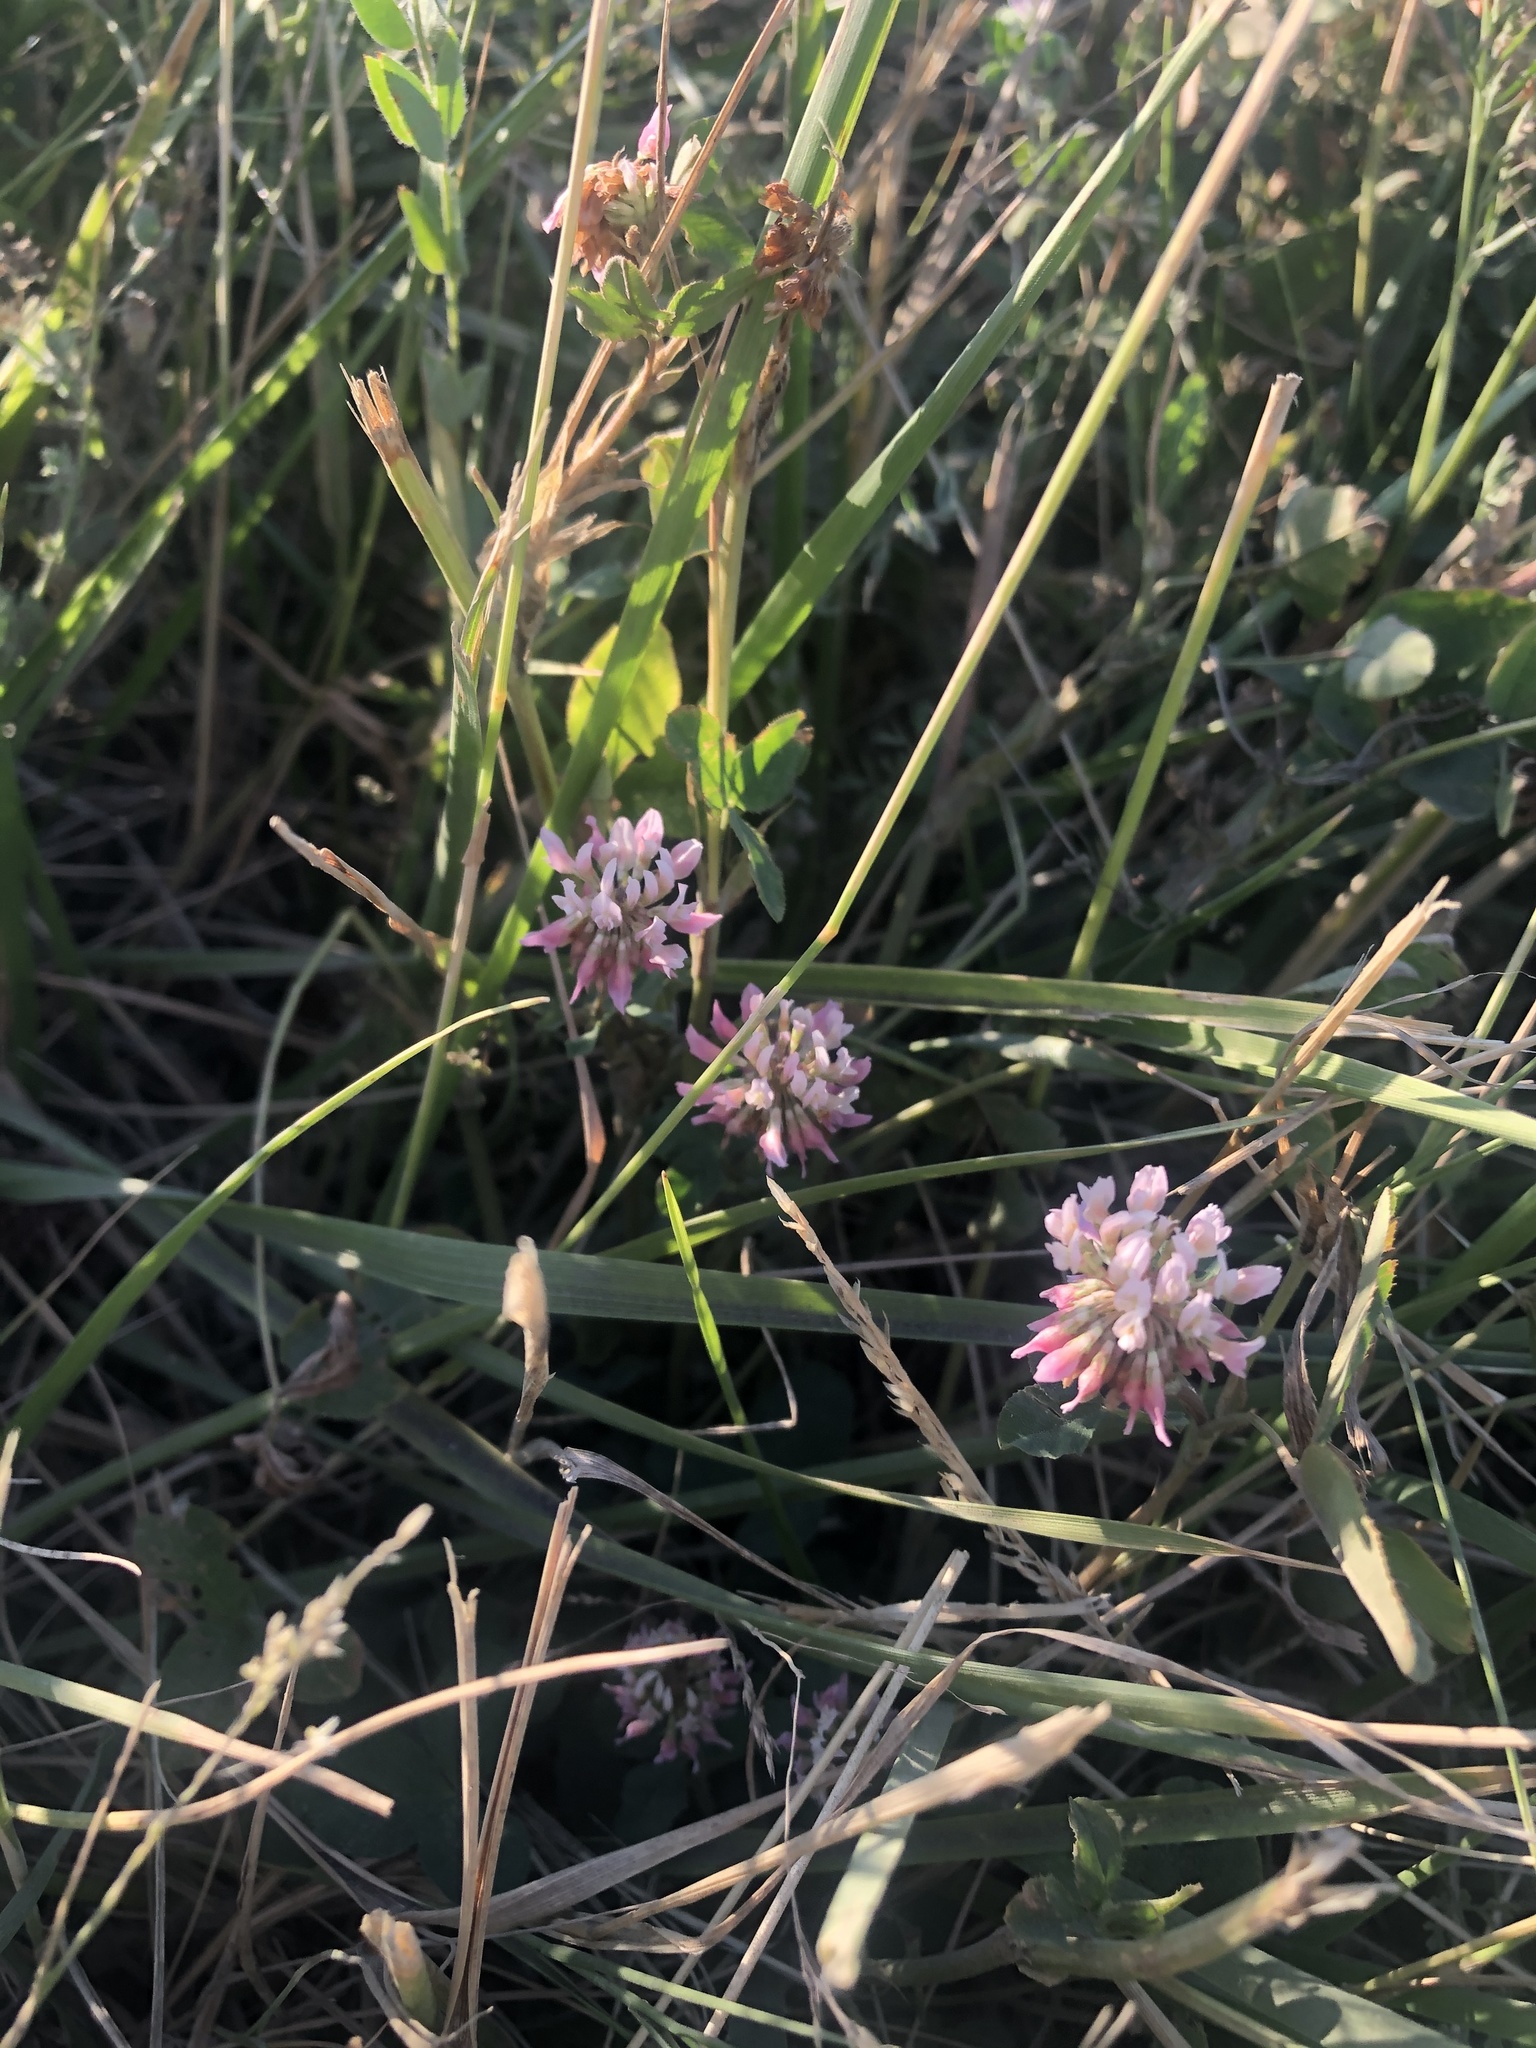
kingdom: Plantae
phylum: Tracheophyta
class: Magnoliopsida
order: Fabales
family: Fabaceae
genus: Trifolium
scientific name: Trifolium hybridum
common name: Alsike clover
